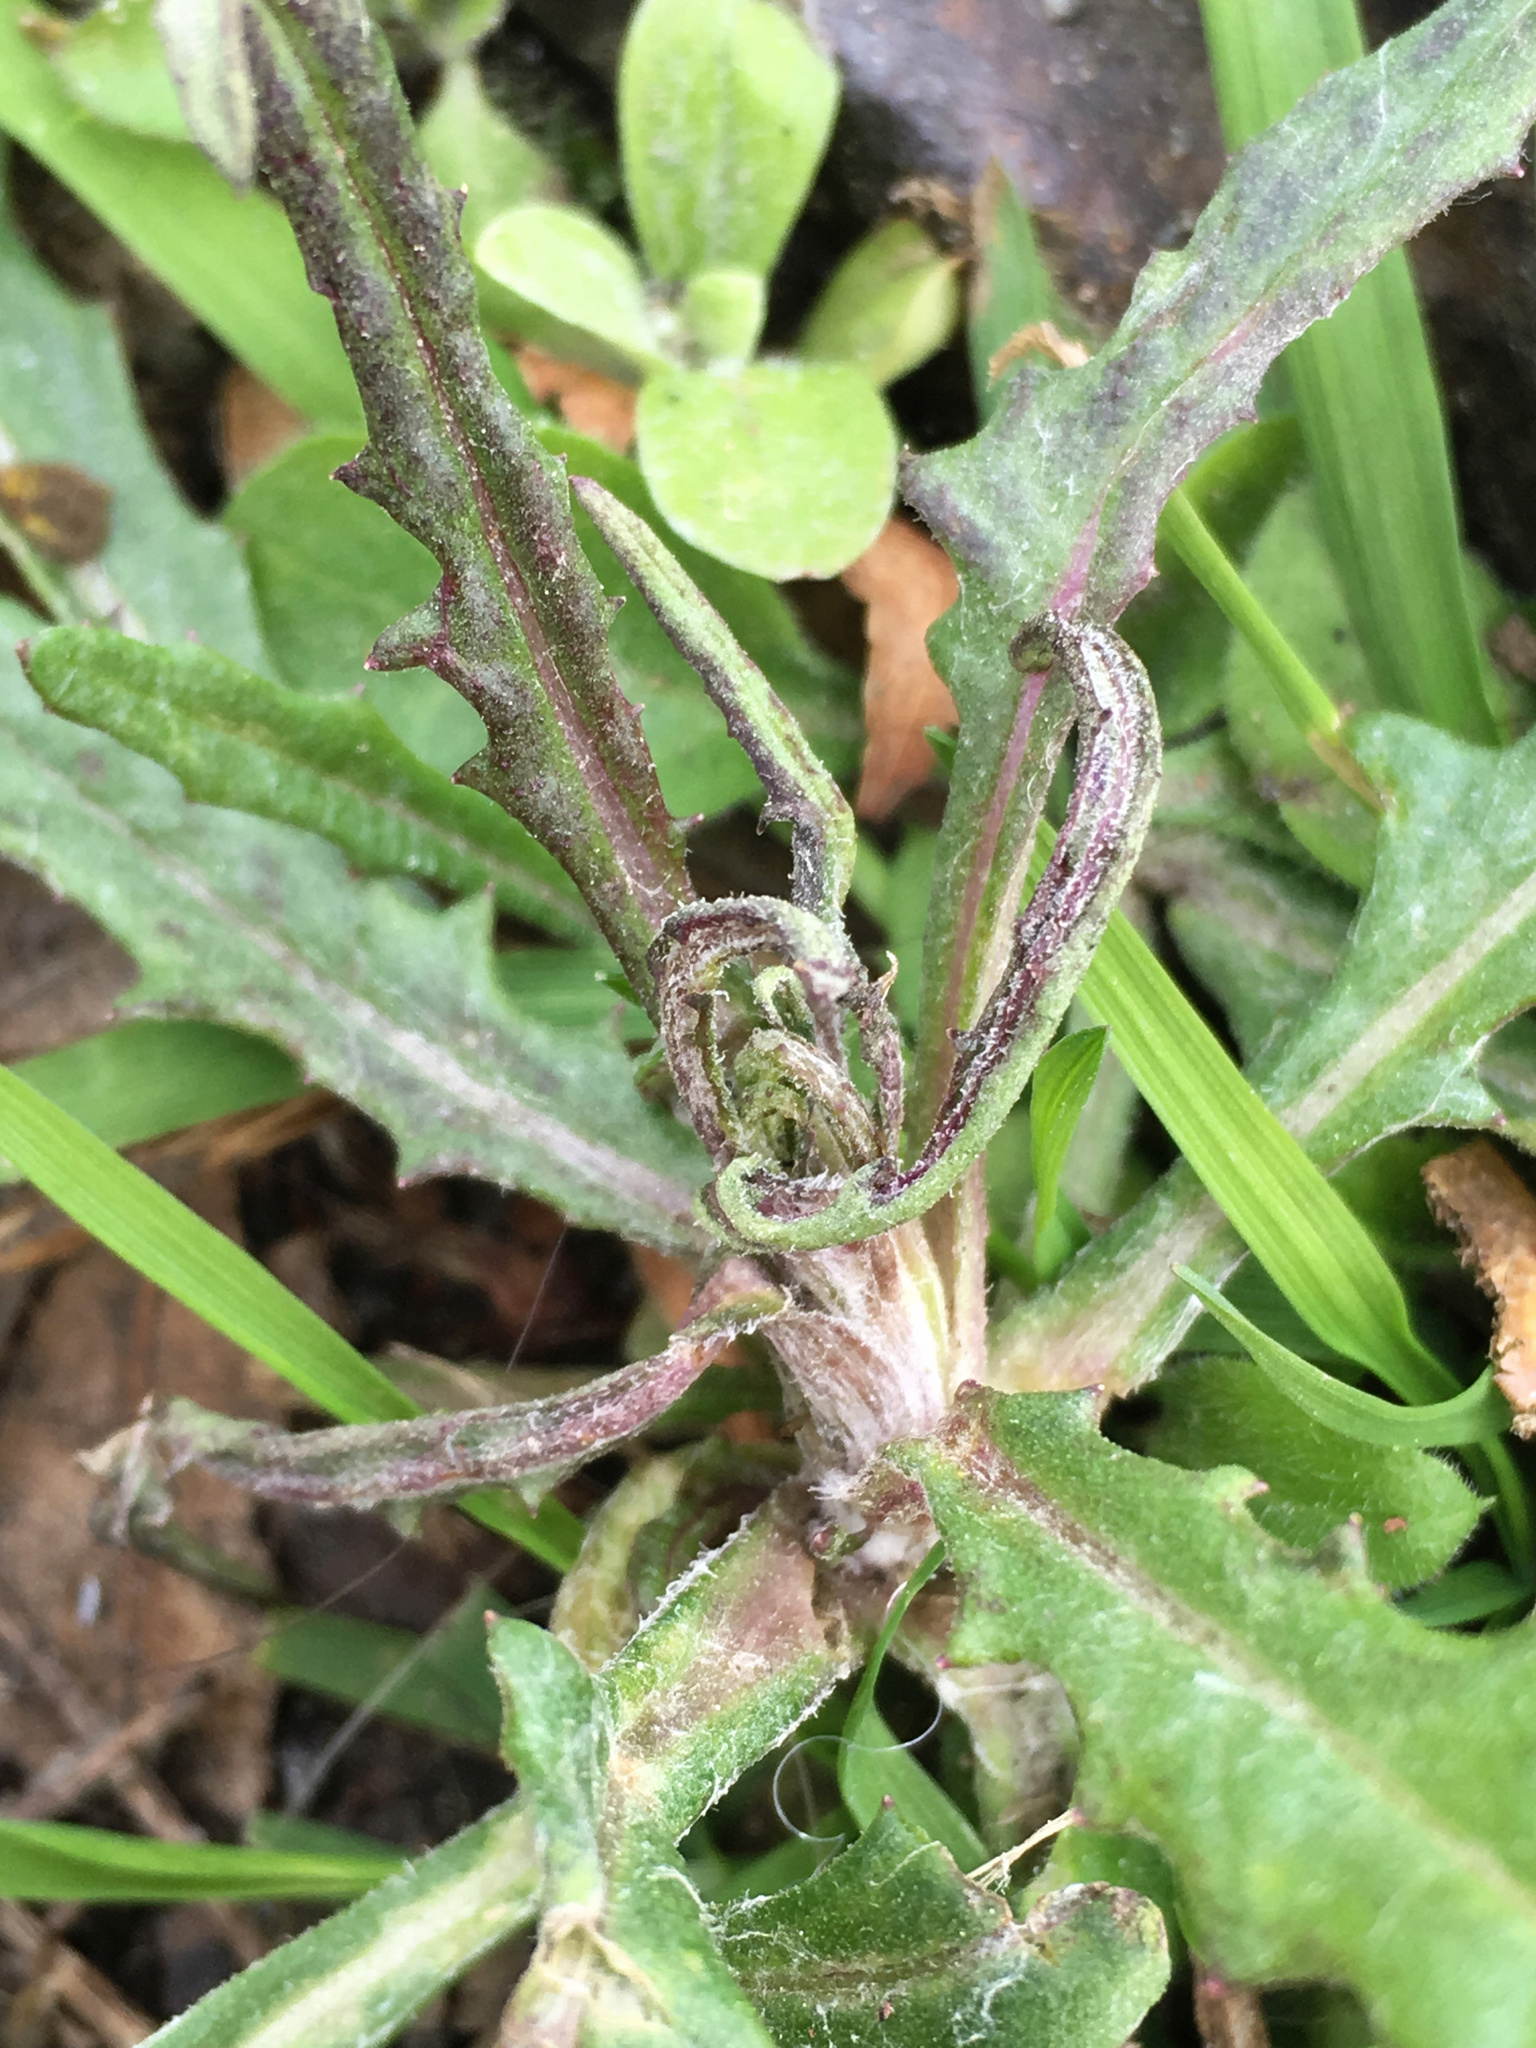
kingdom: Plantae
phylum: Tracheophyta
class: Magnoliopsida
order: Asterales
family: Asteraceae
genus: Senecio
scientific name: Senecio glomeratus
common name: Cutleaf burnweed
